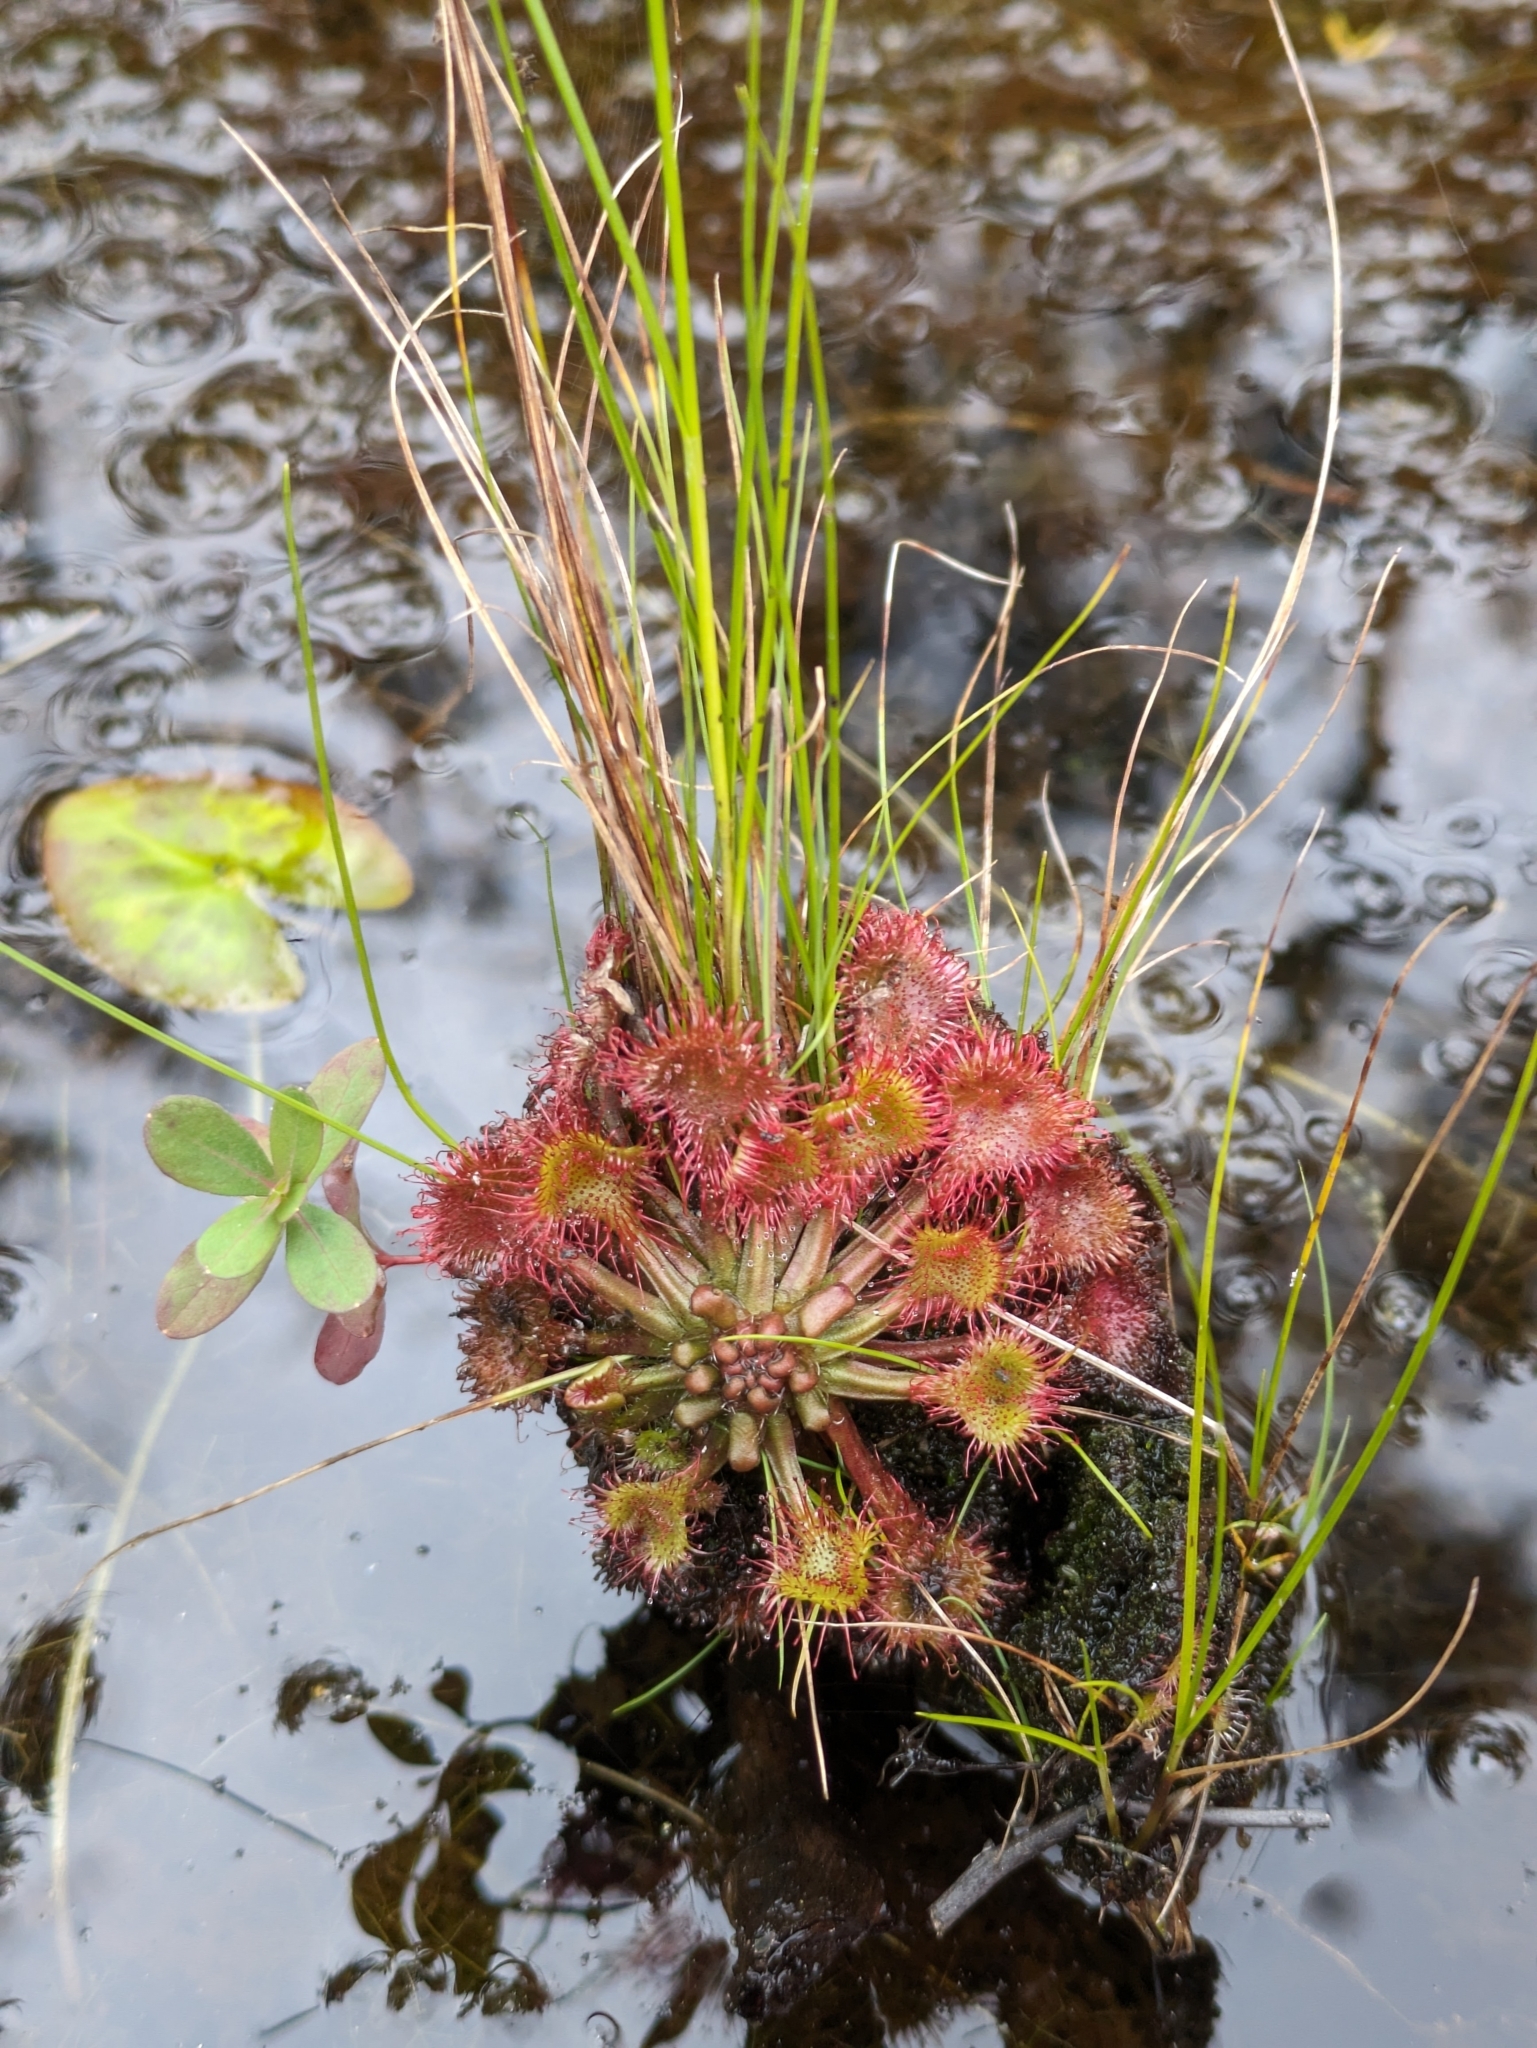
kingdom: Plantae
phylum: Tracheophyta
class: Magnoliopsida
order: Caryophyllales
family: Droseraceae
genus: Drosera
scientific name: Drosera rotundifolia
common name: Round-leaved sundew
